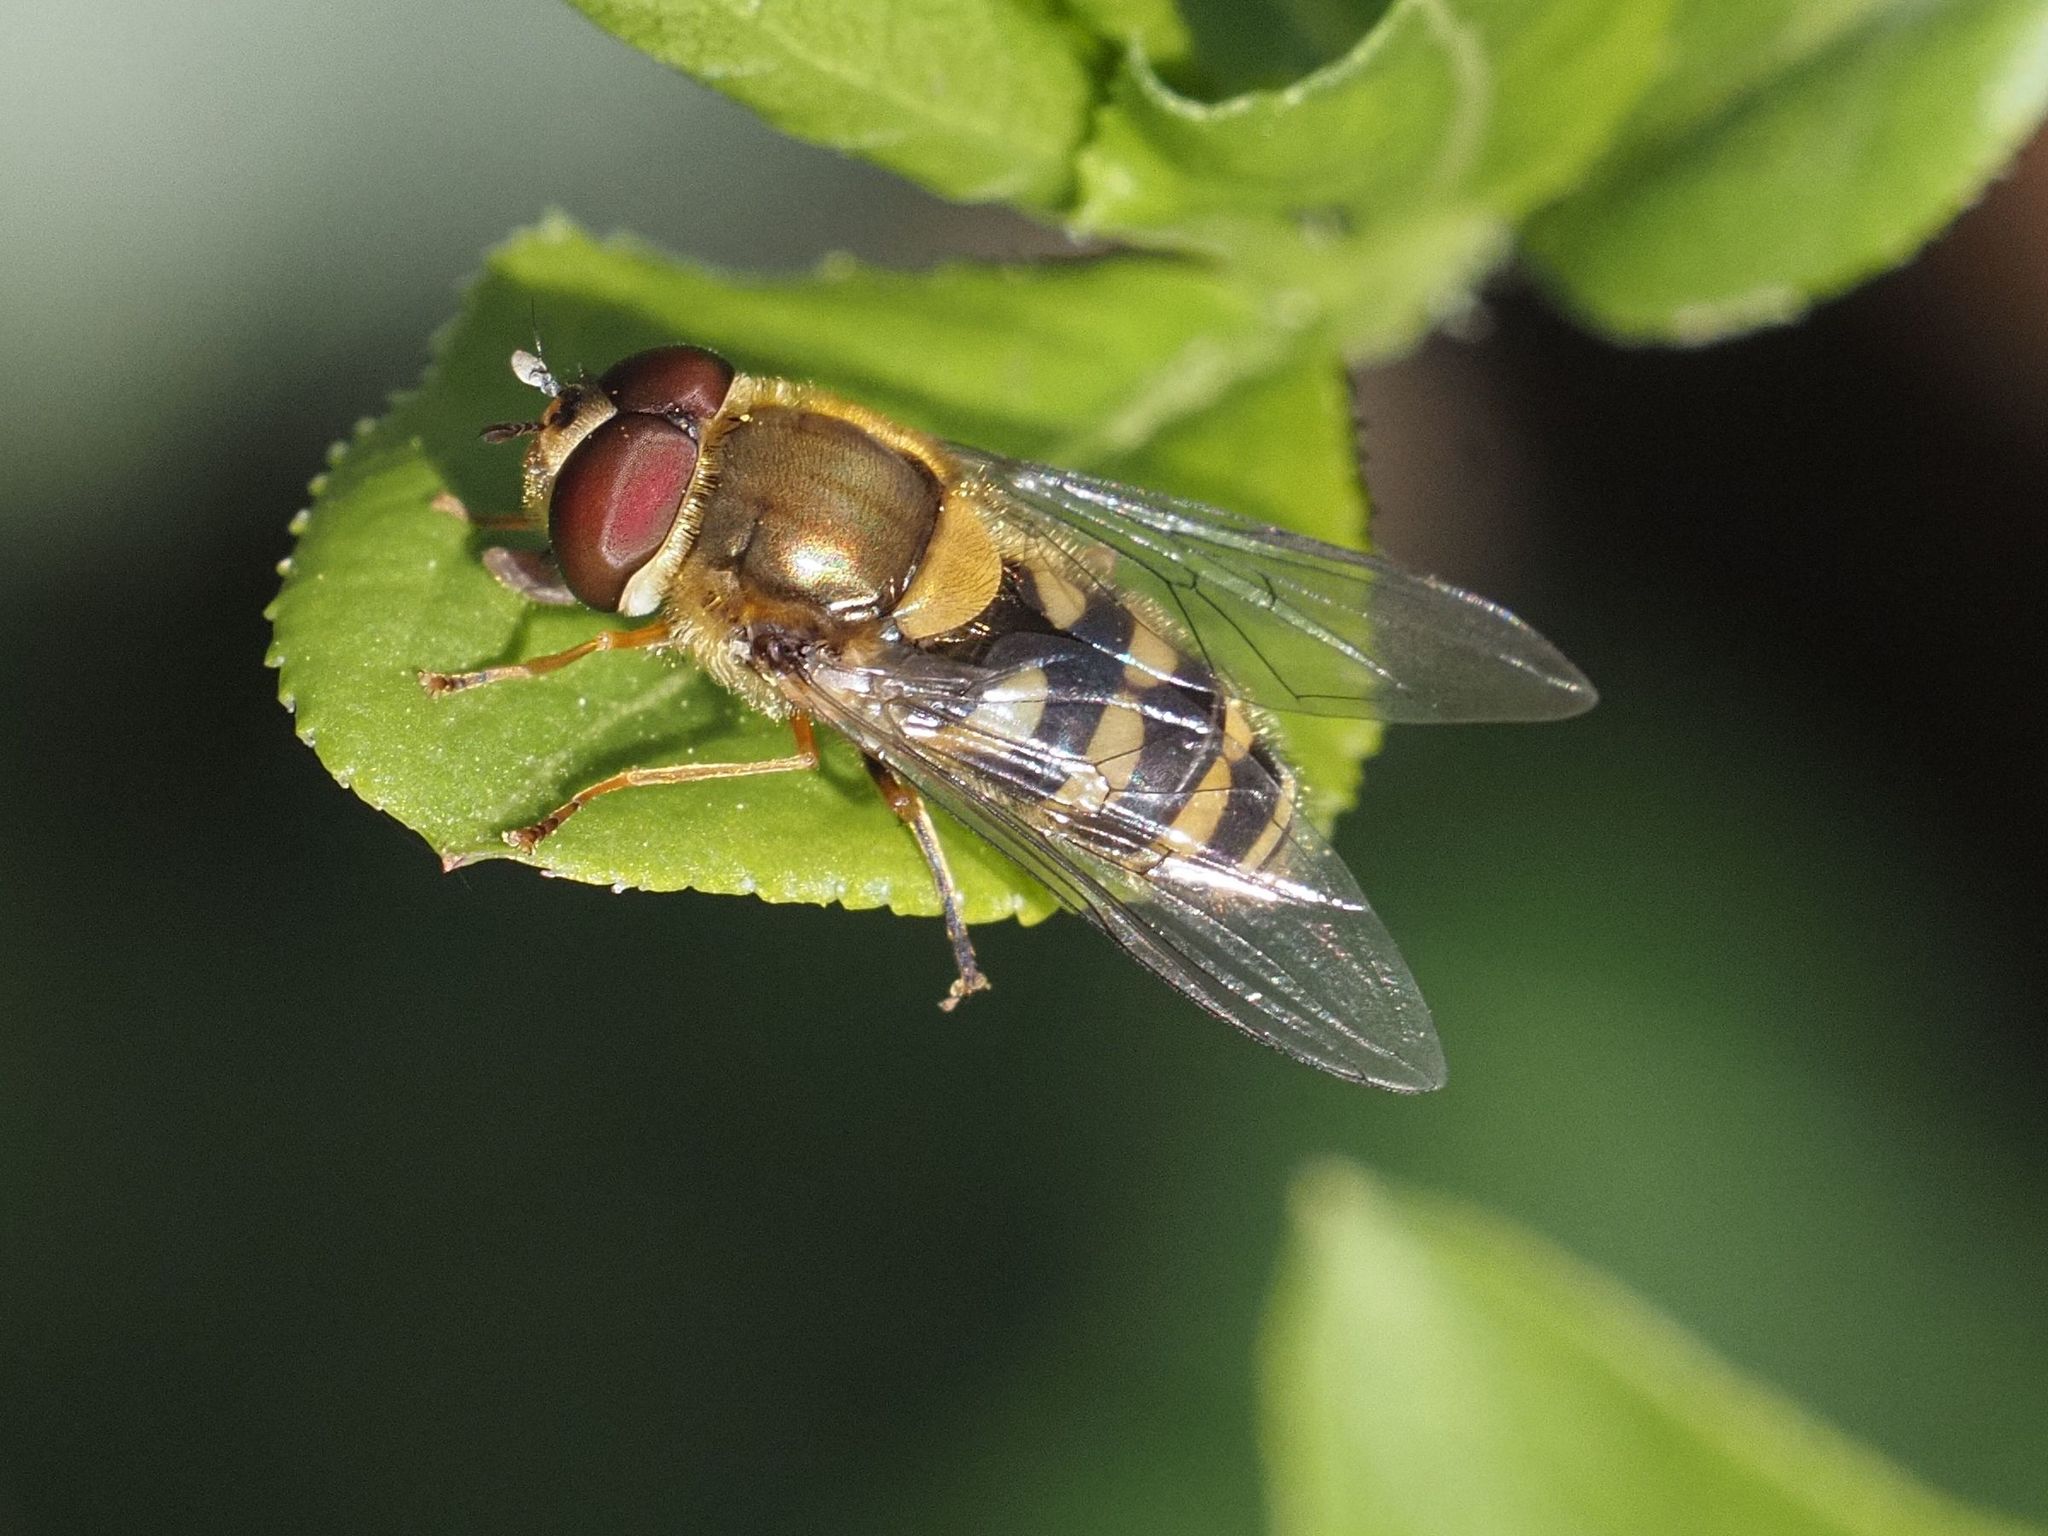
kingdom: Animalia
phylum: Arthropoda
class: Insecta
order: Diptera
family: Syrphidae
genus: Syrphus
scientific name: Syrphus torvus
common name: Hairy-eyed flower fly
